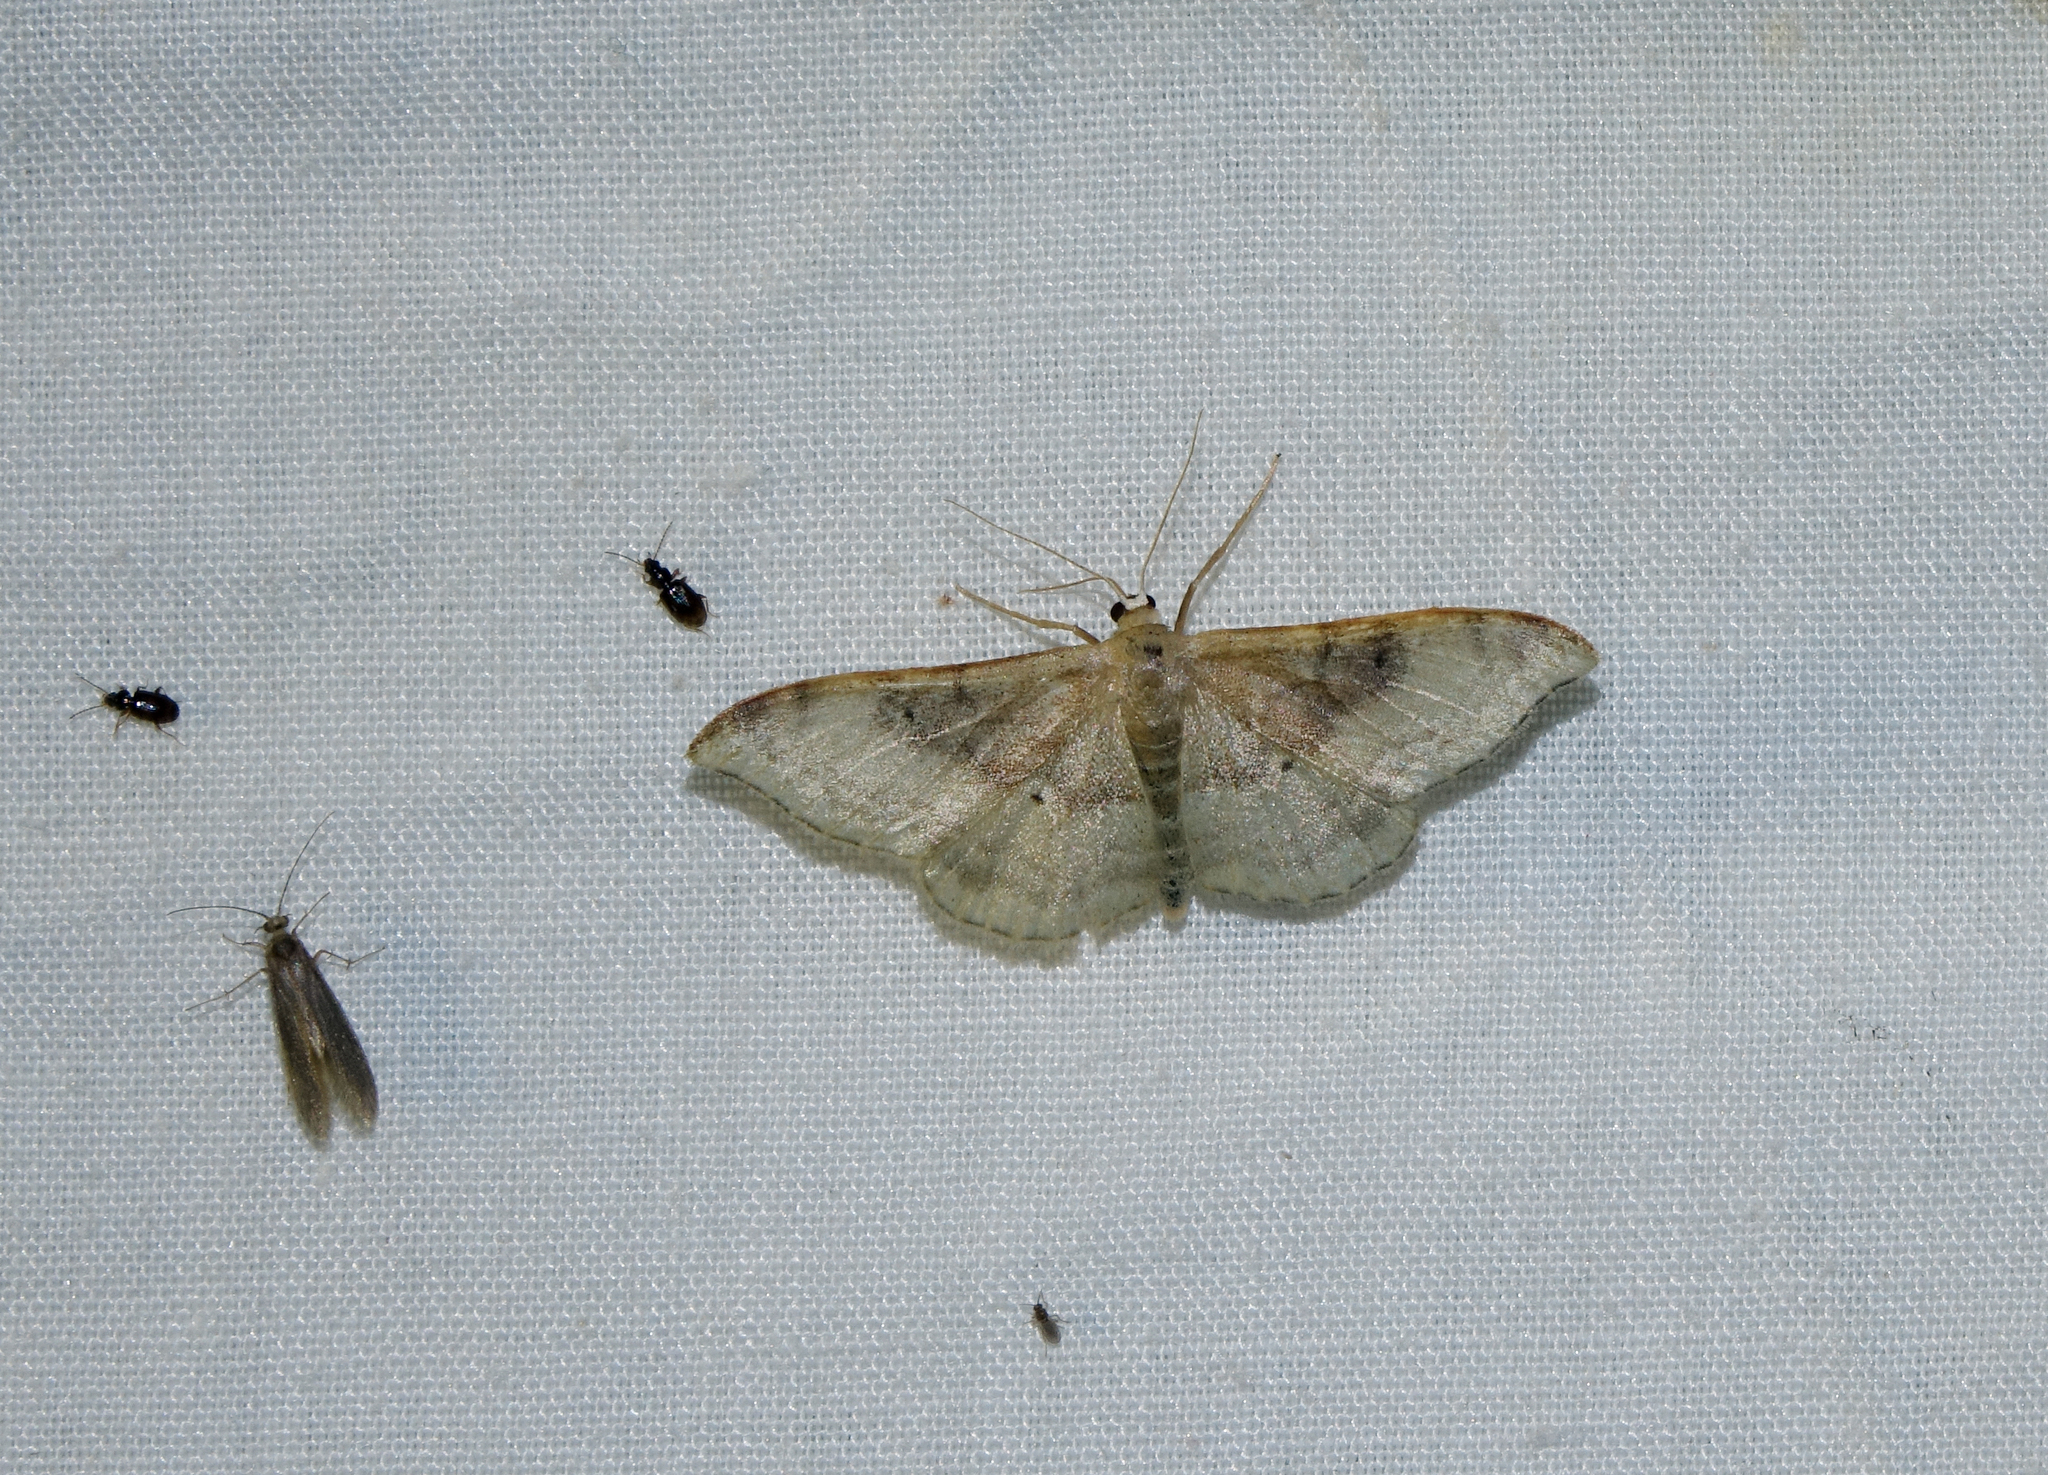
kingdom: Animalia
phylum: Arthropoda
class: Insecta
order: Lepidoptera
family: Geometridae
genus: Idaea
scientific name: Idaea degeneraria
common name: Portland ribbon wave
